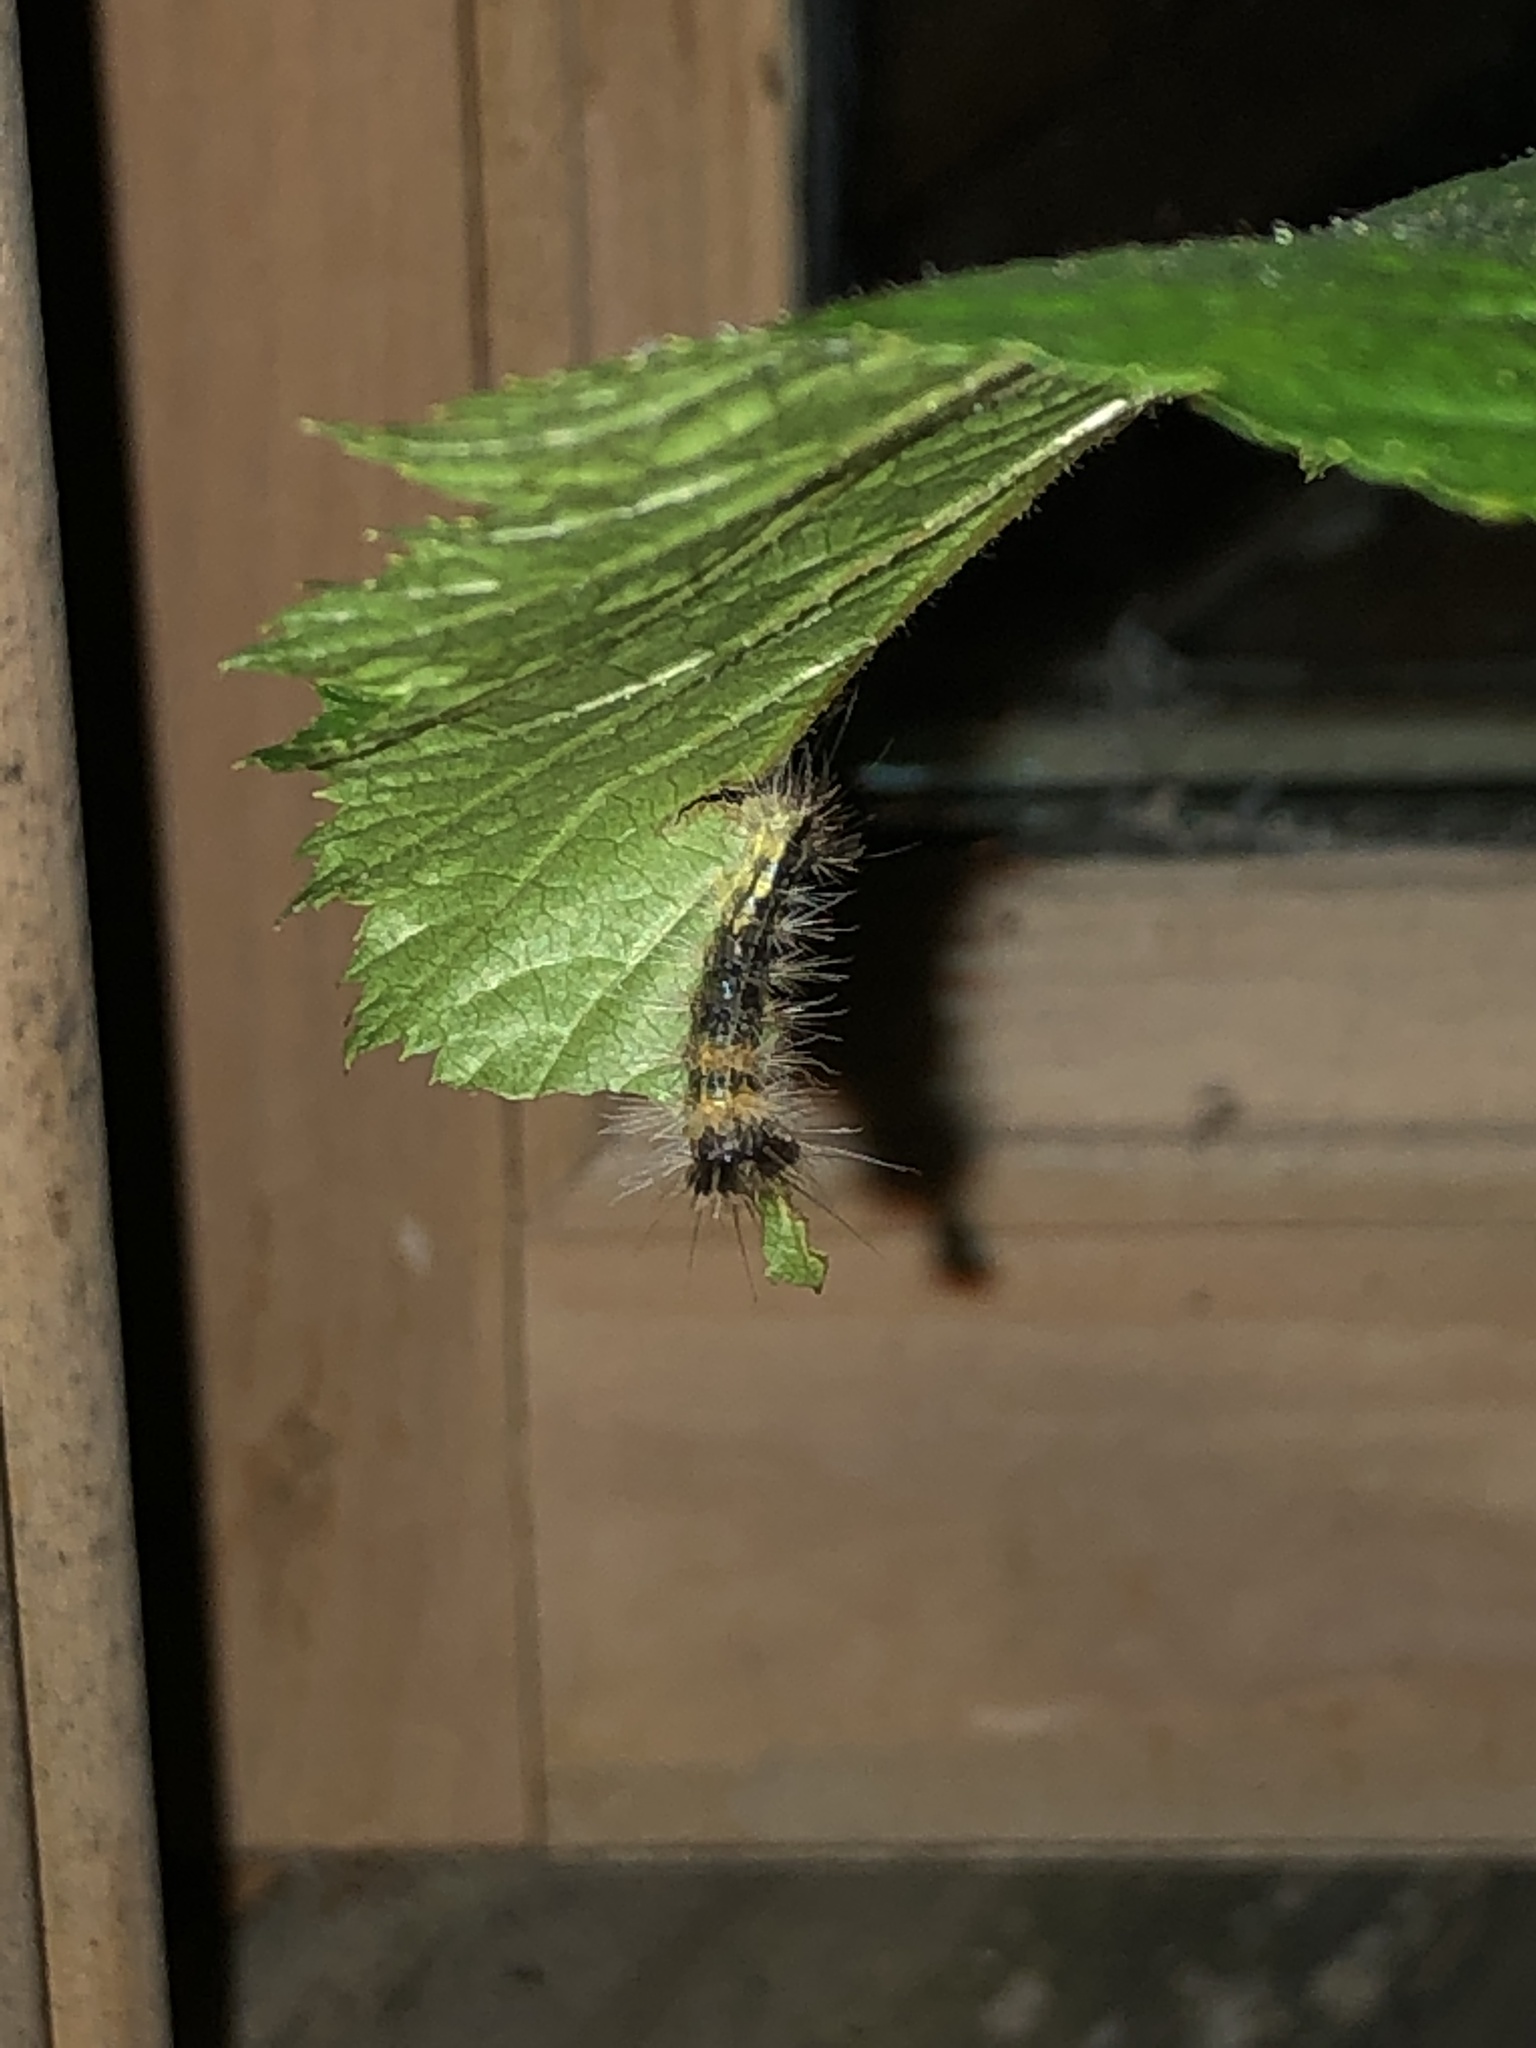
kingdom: Animalia
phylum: Arthropoda
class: Insecta
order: Lepidoptera
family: Noctuidae
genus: Acronicta
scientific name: Acronicta impleta
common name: Powdered dagger
